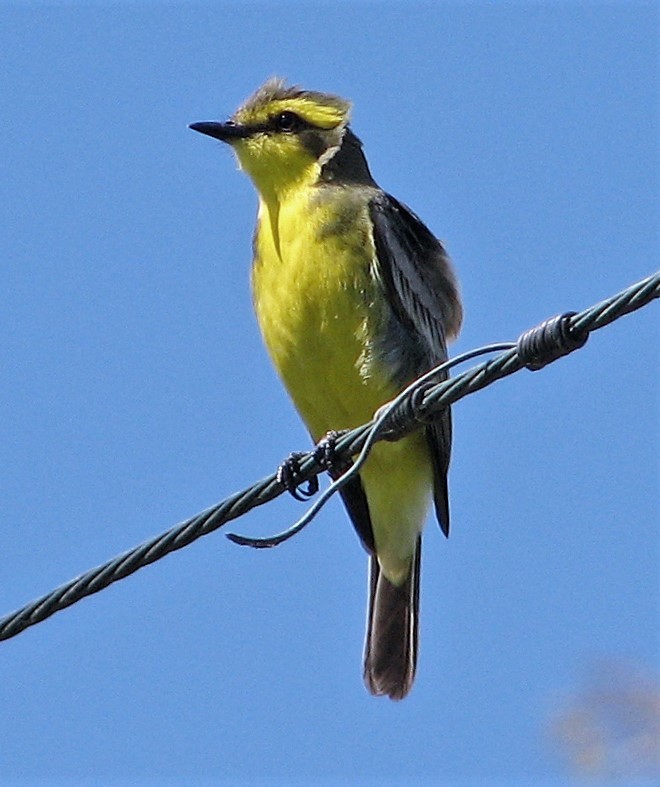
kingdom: Animalia
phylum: Chordata
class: Aves
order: Passeriformes
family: Tyrannidae
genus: Satrapa
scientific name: Satrapa icterophrys
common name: Yellow-browed tyrant
